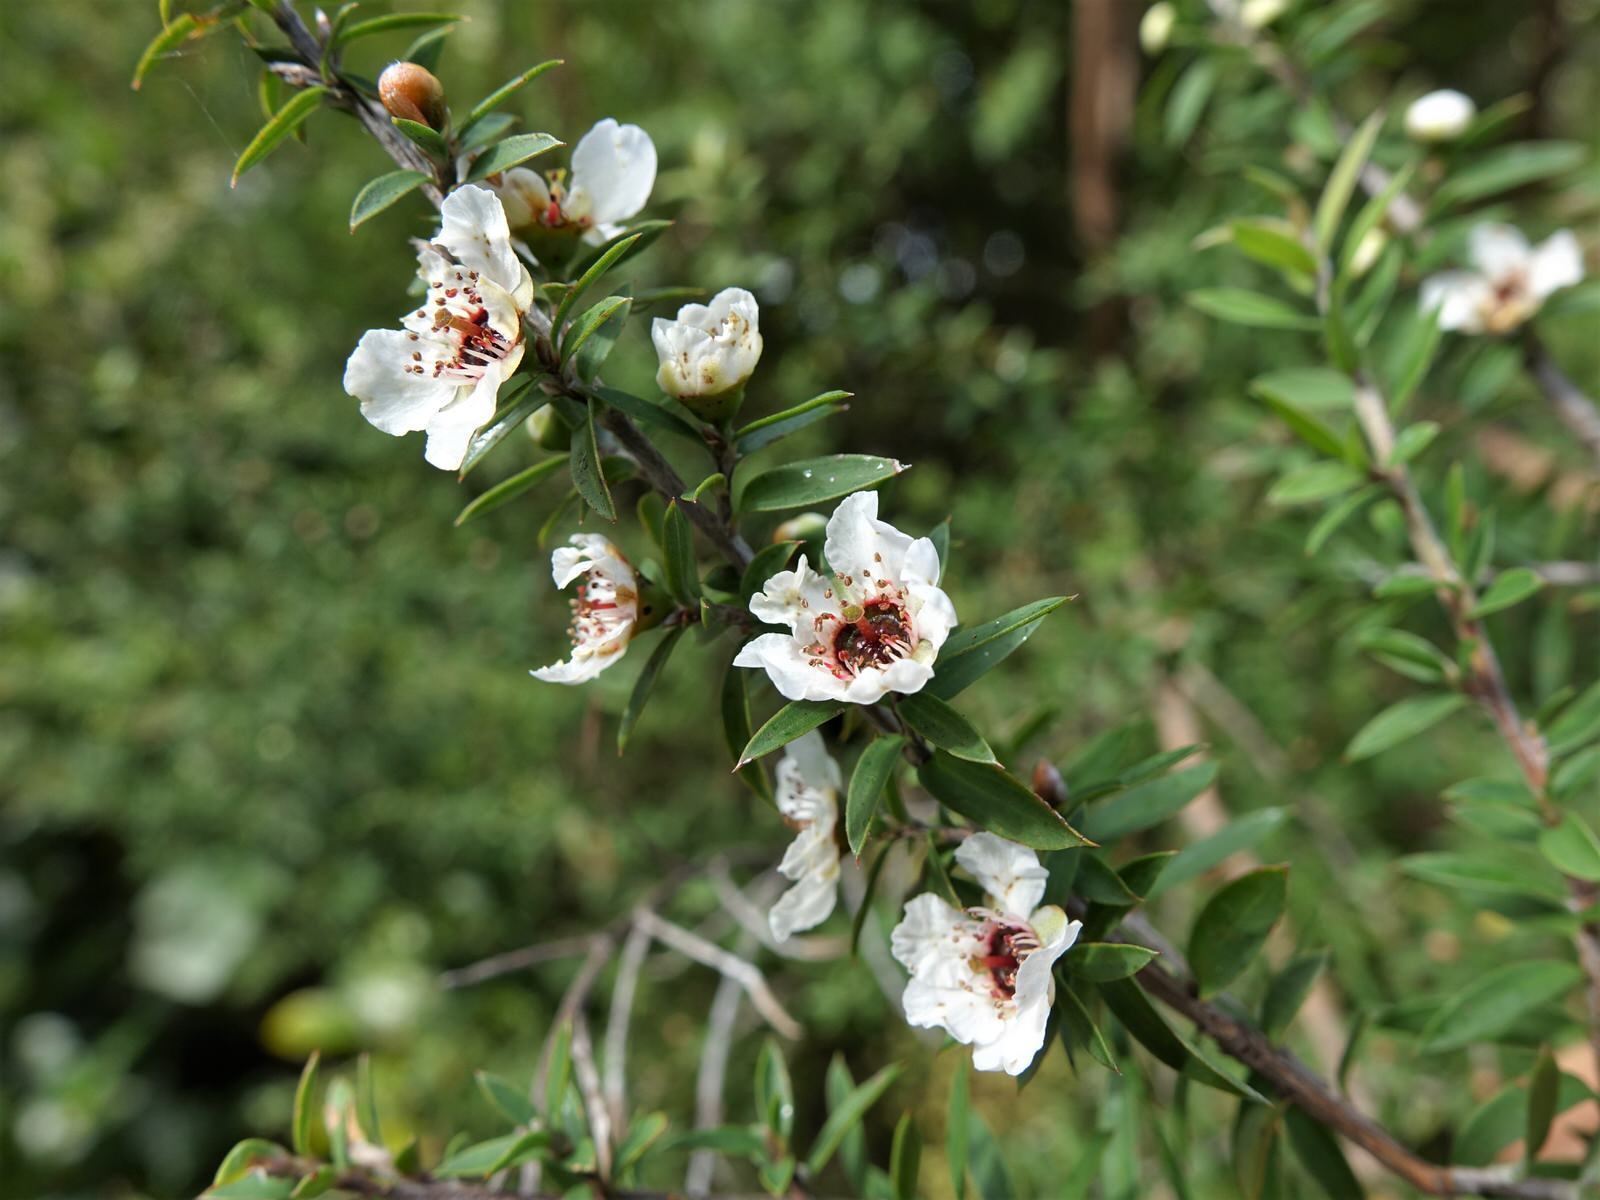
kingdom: Plantae
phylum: Tracheophyta
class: Magnoliopsida
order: Myrtales
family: Myrtaceae
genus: Leptospermum
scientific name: Leptospermum scoparium
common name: Broom tea-tree
